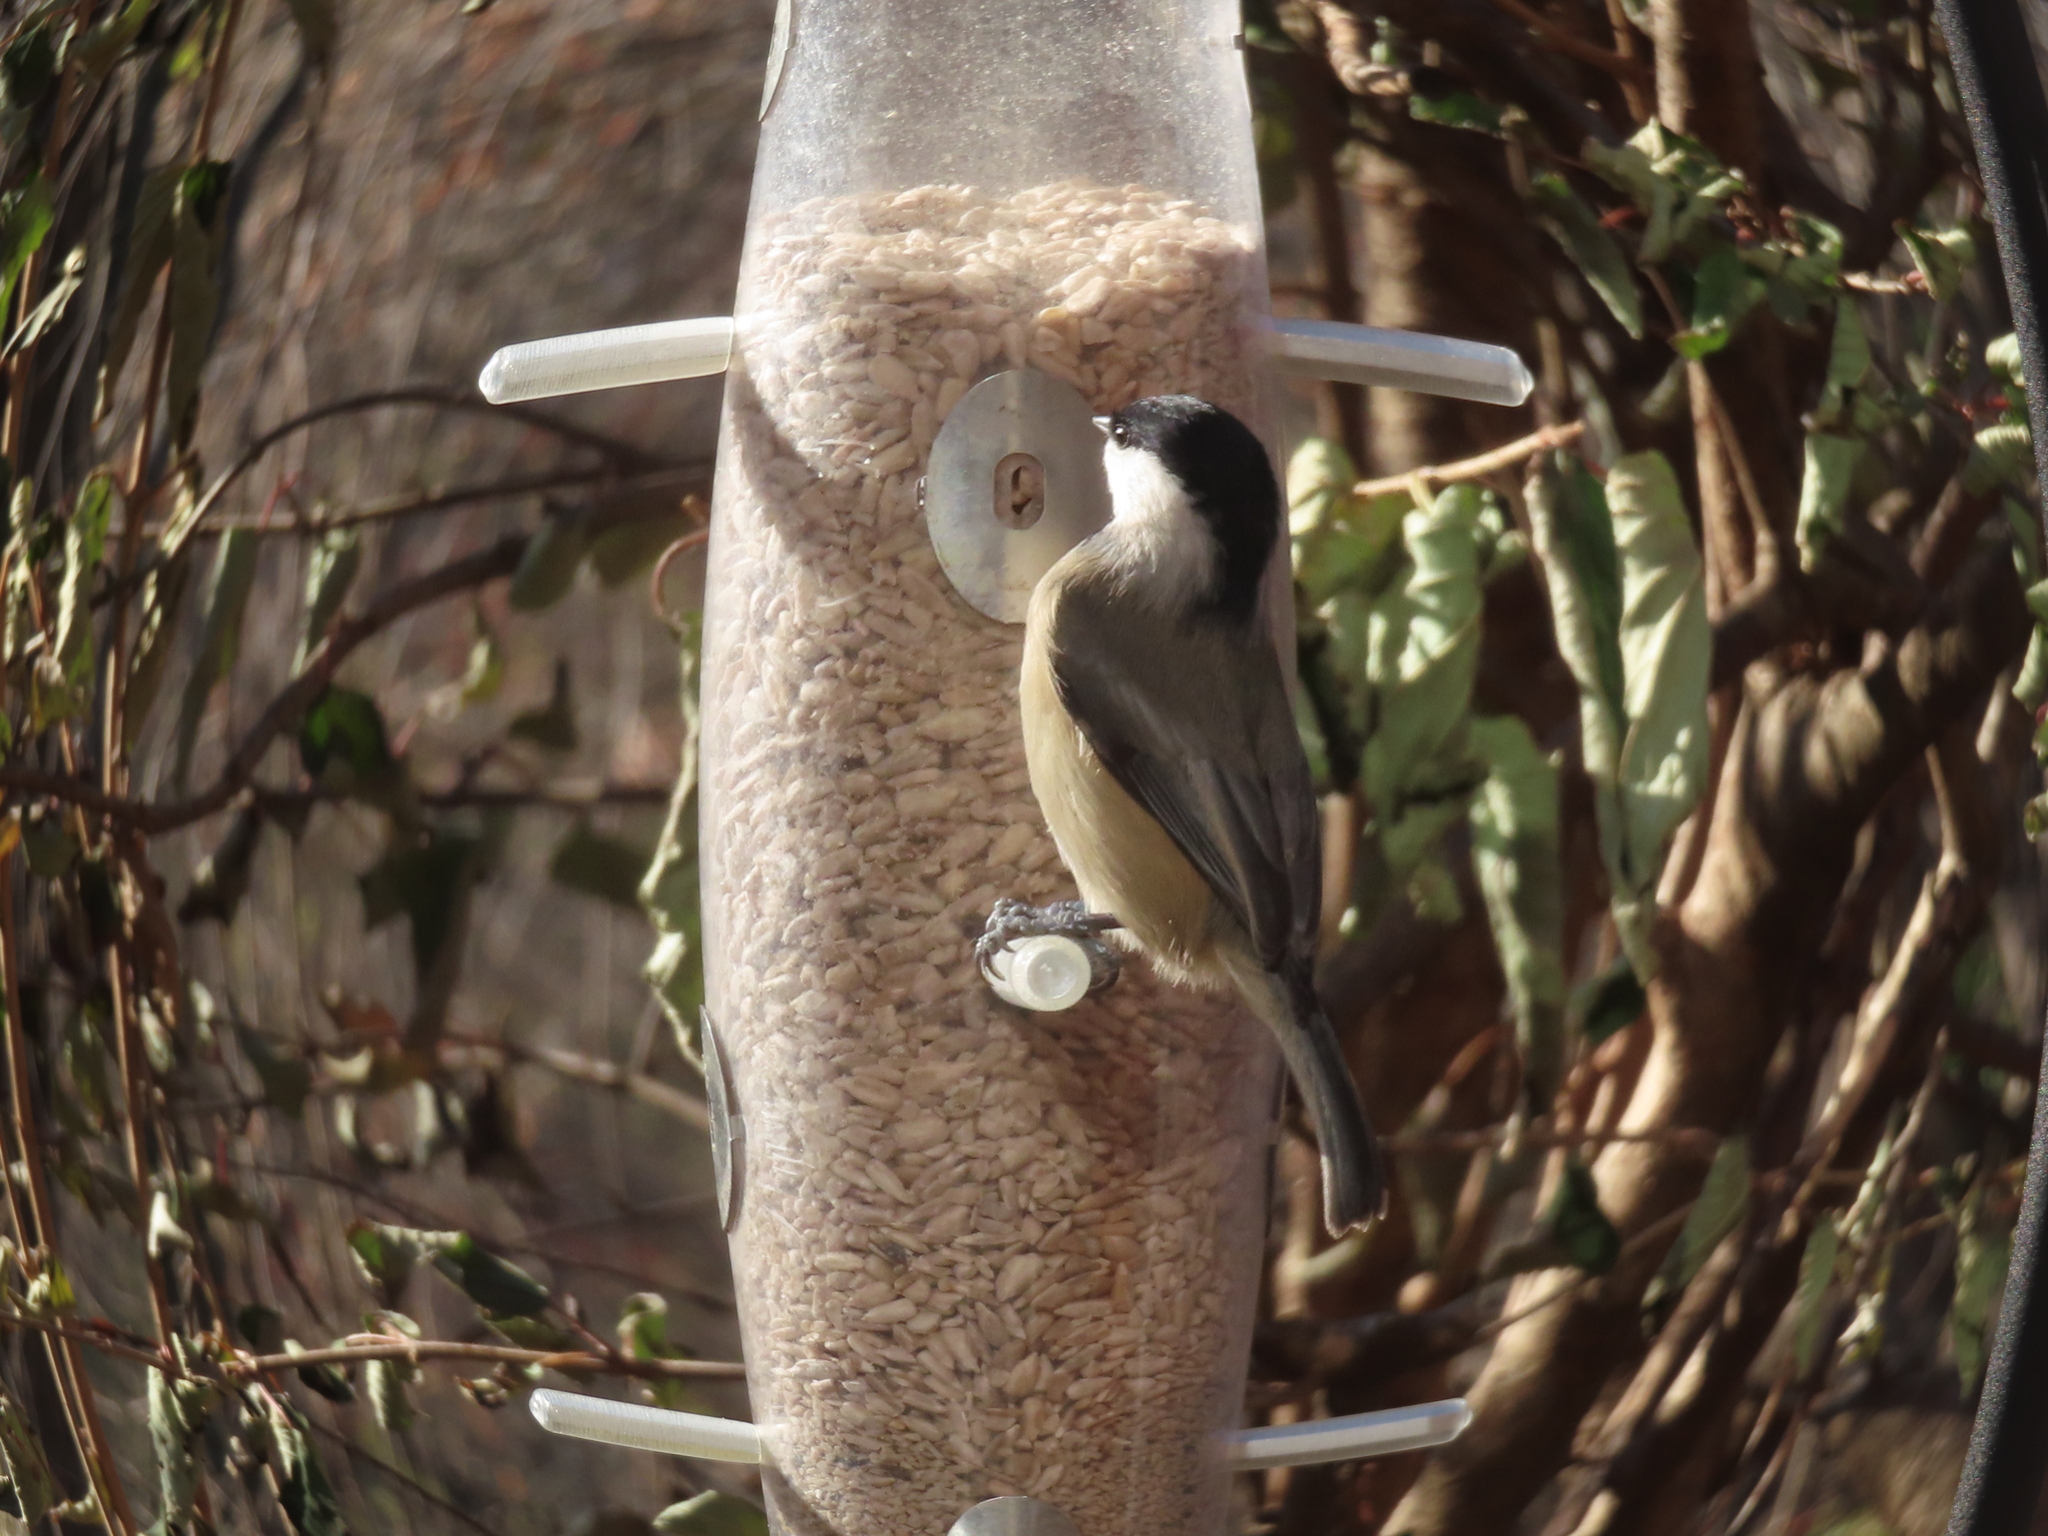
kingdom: Animalia
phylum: Chordata
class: Aves
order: Passeriformes
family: Paridae
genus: Poecile
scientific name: Poecile carolinensis
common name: Carolina chickadee
